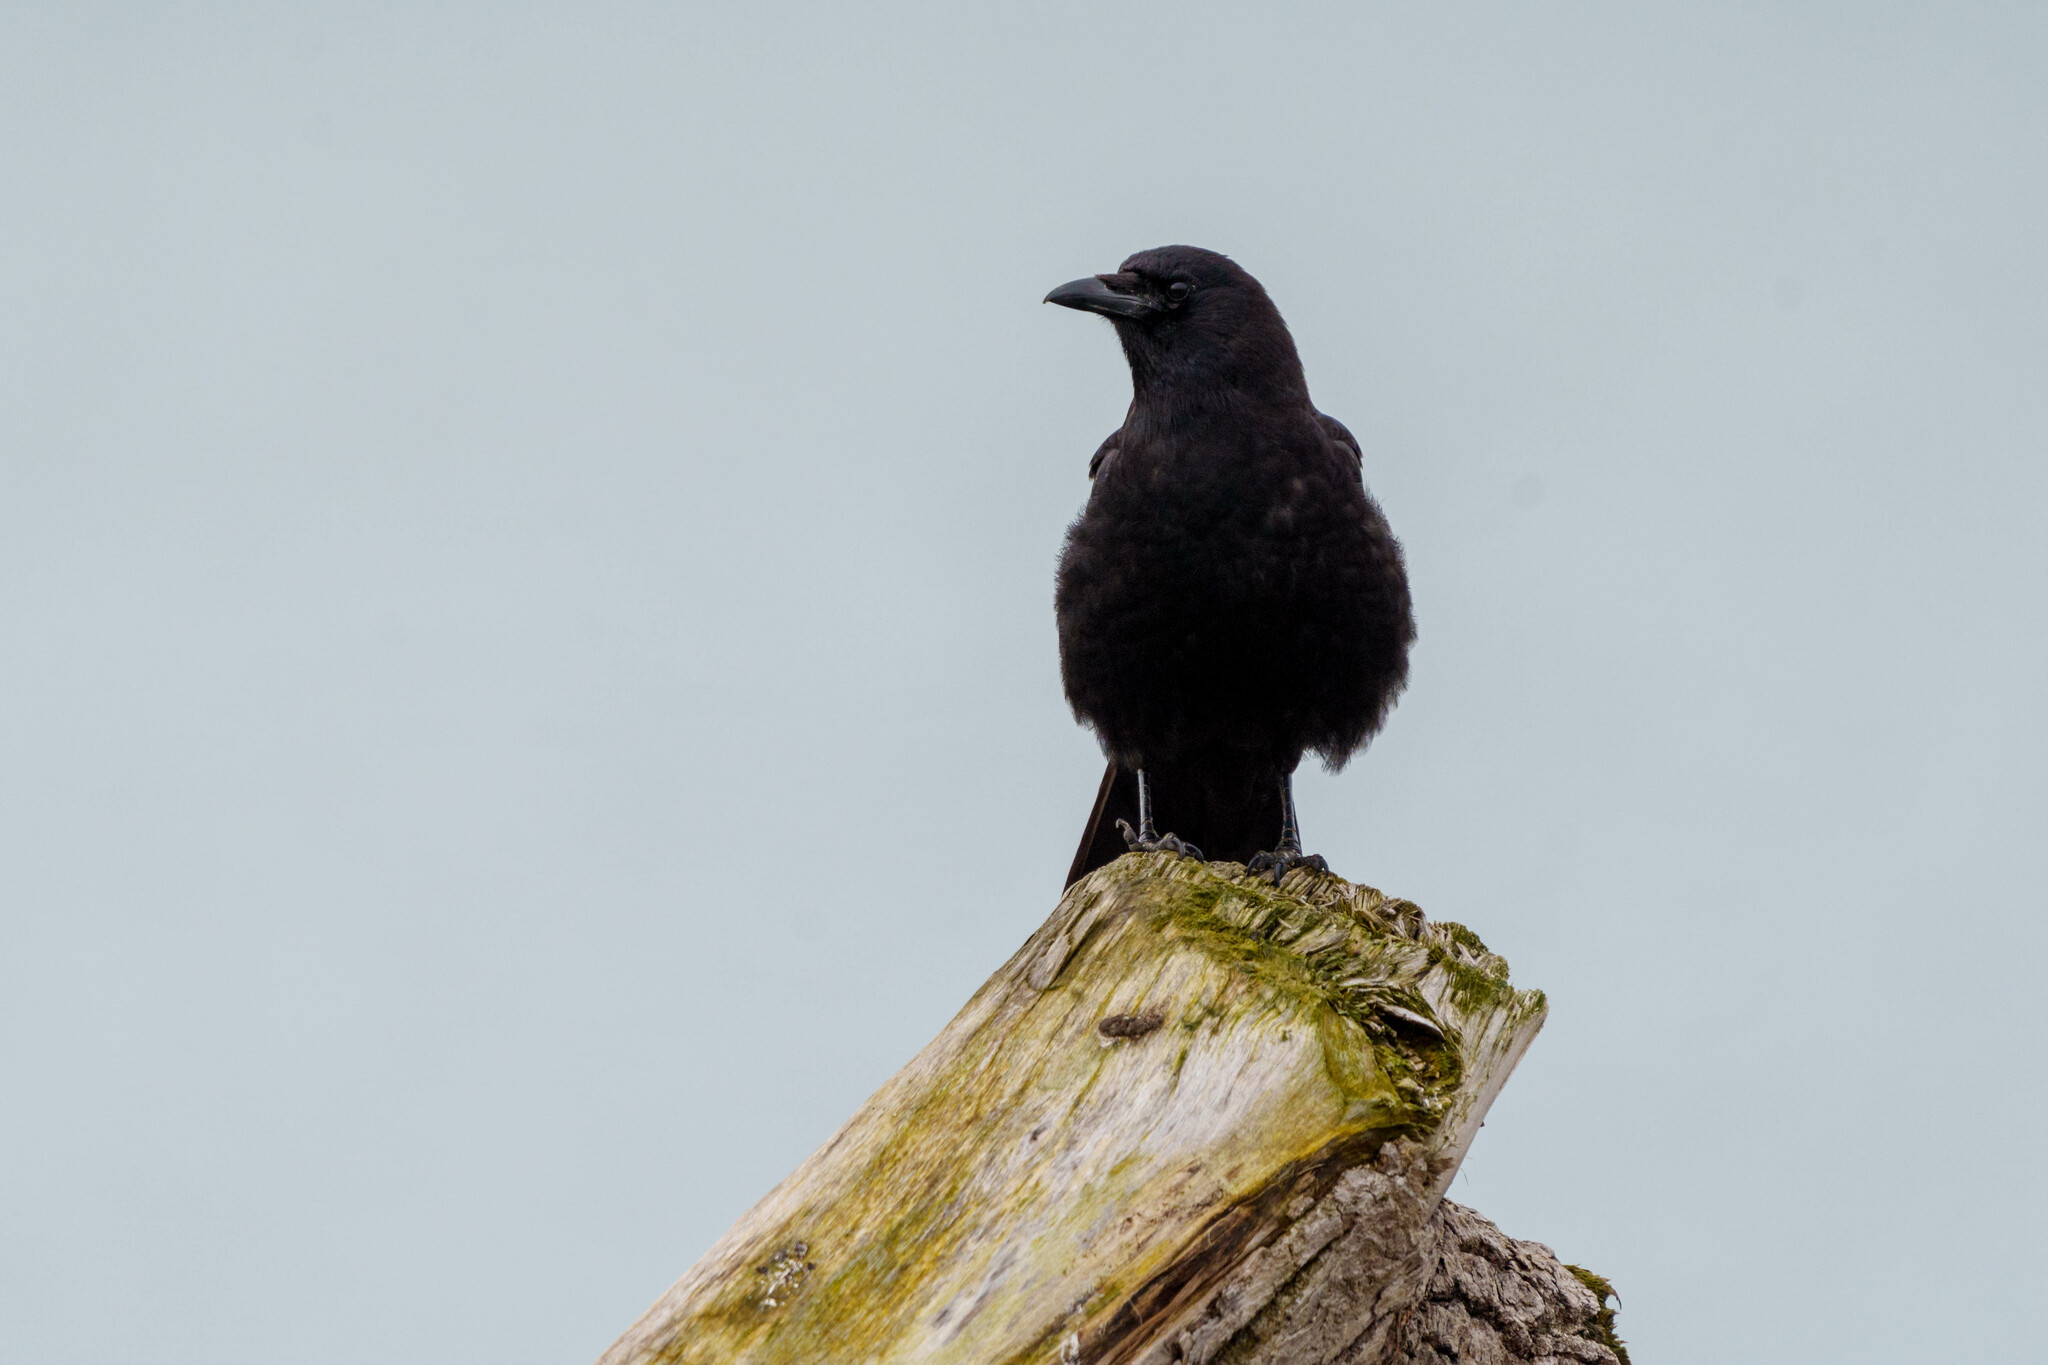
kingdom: Animalia
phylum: Chordata
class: Aves
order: Passeriformes
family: Corvidae
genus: Corvus
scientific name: Corvus brachyrhynchos
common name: American crow
